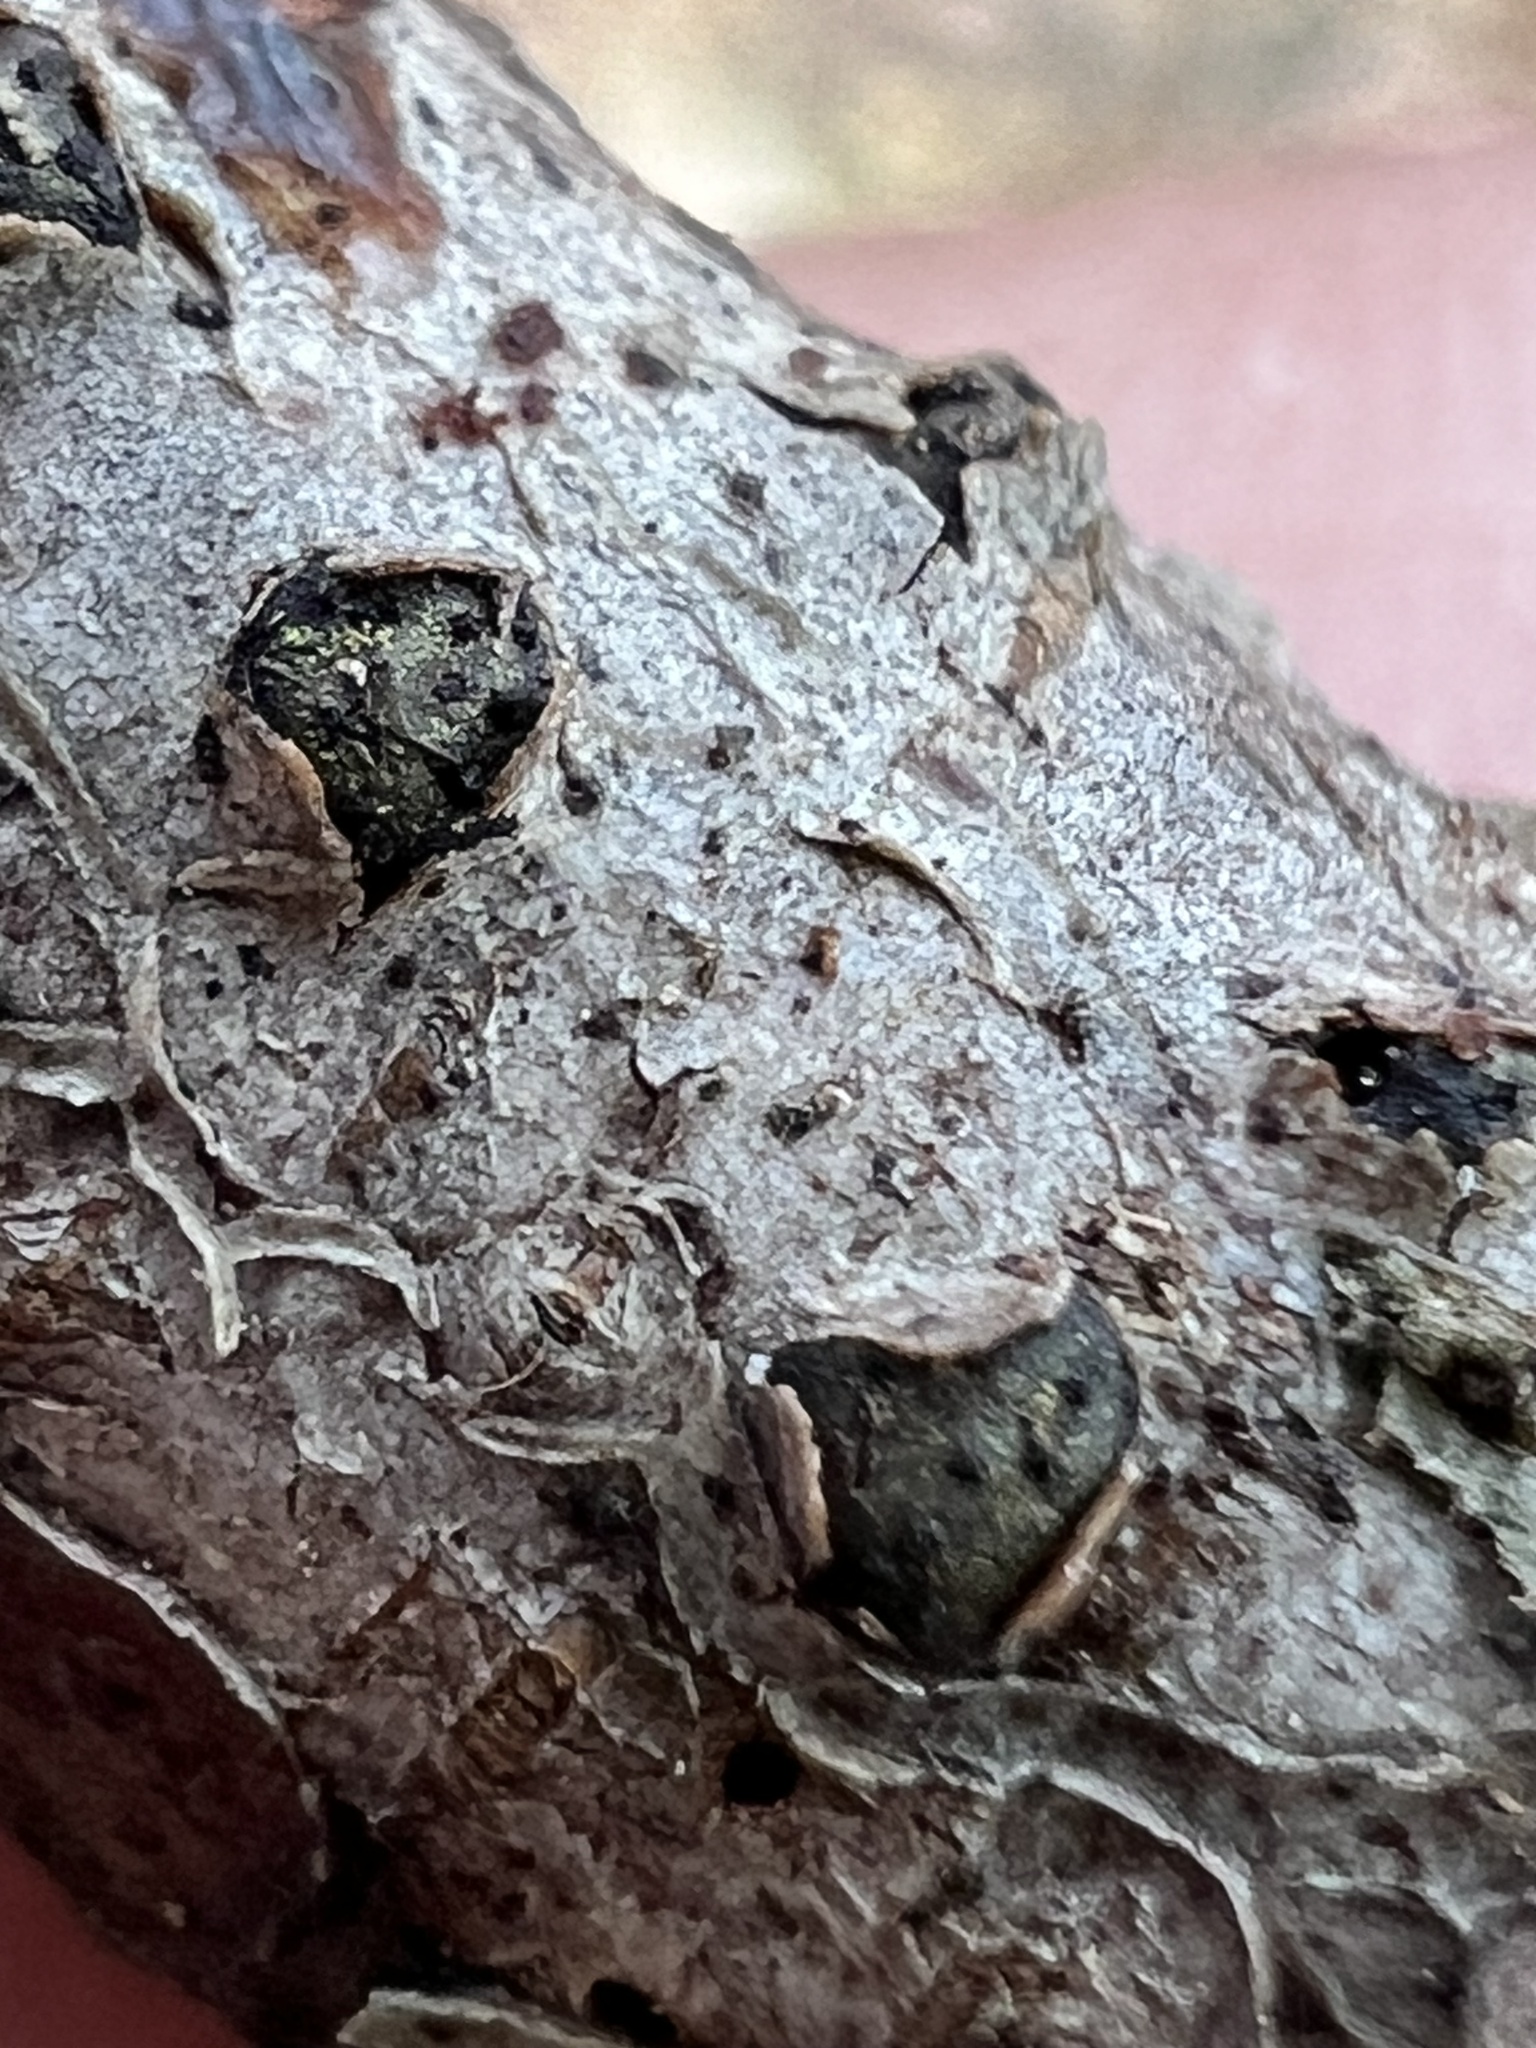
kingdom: Fungi
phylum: Ascomycota
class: Sordariomycetes
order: Xylariales
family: Diatrypaceae
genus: Diatrype
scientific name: Diatrype virescens
